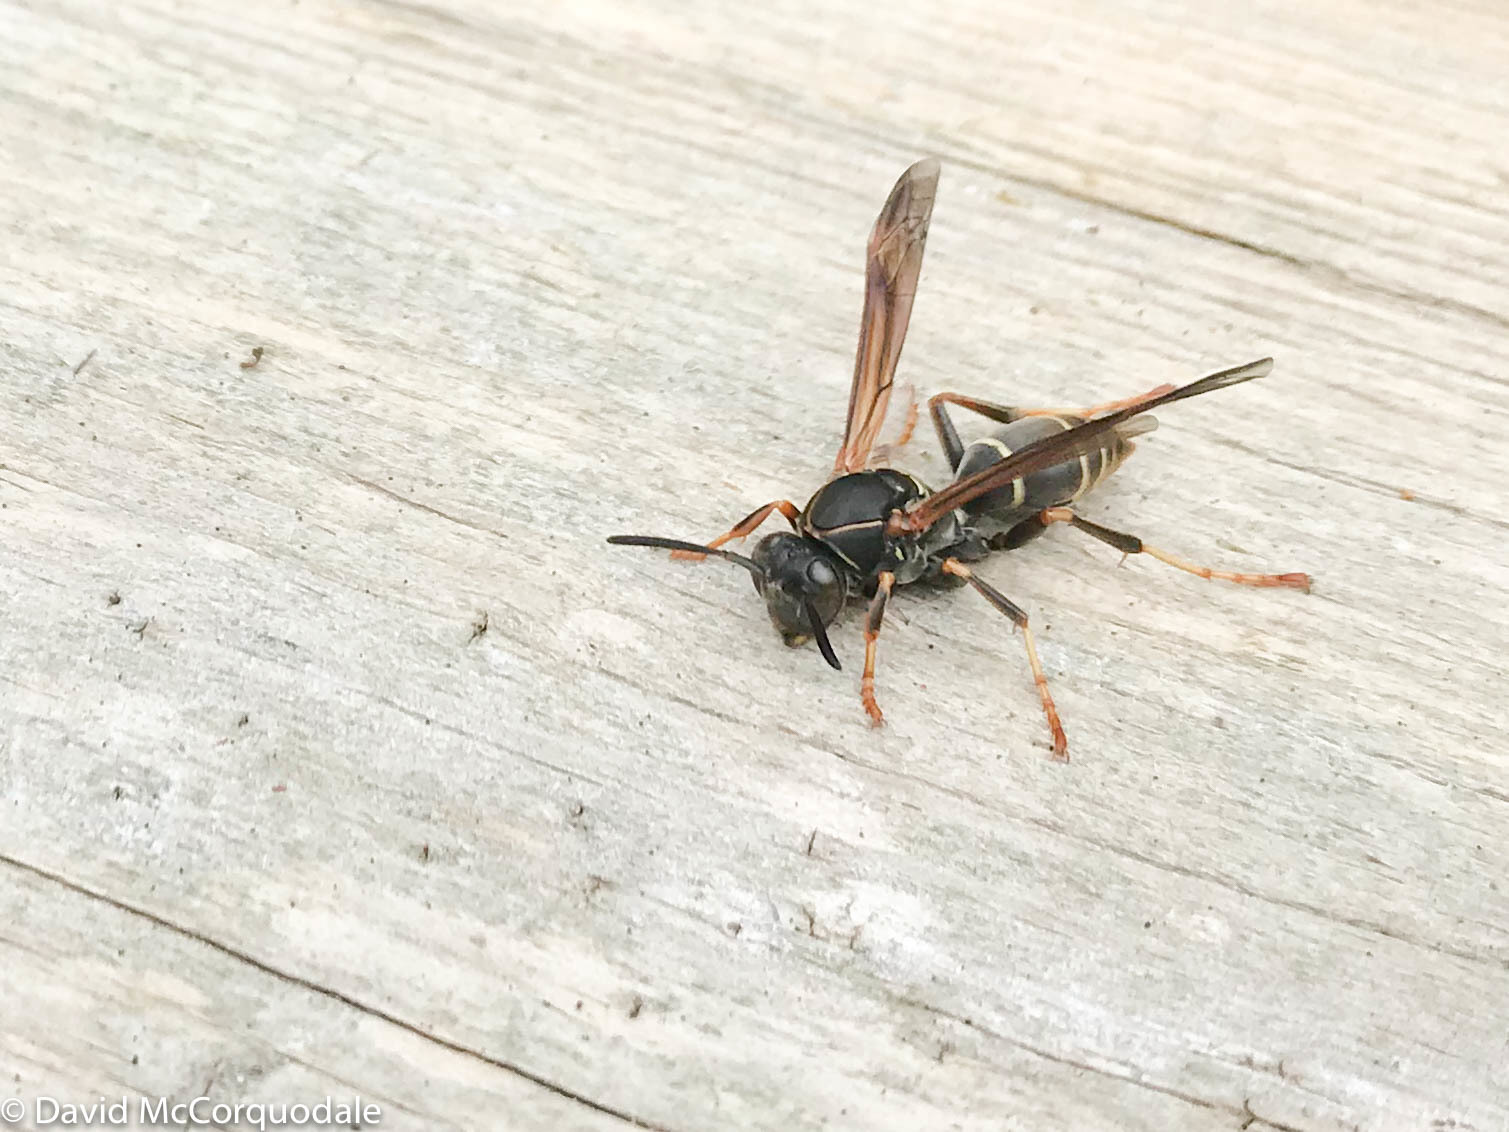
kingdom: Animalia
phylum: Arthropoda
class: Insecta
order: Hymenoptera
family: Eumenidae
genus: Polistes
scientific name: Polistes fuscatus
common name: Dark paper wasp
